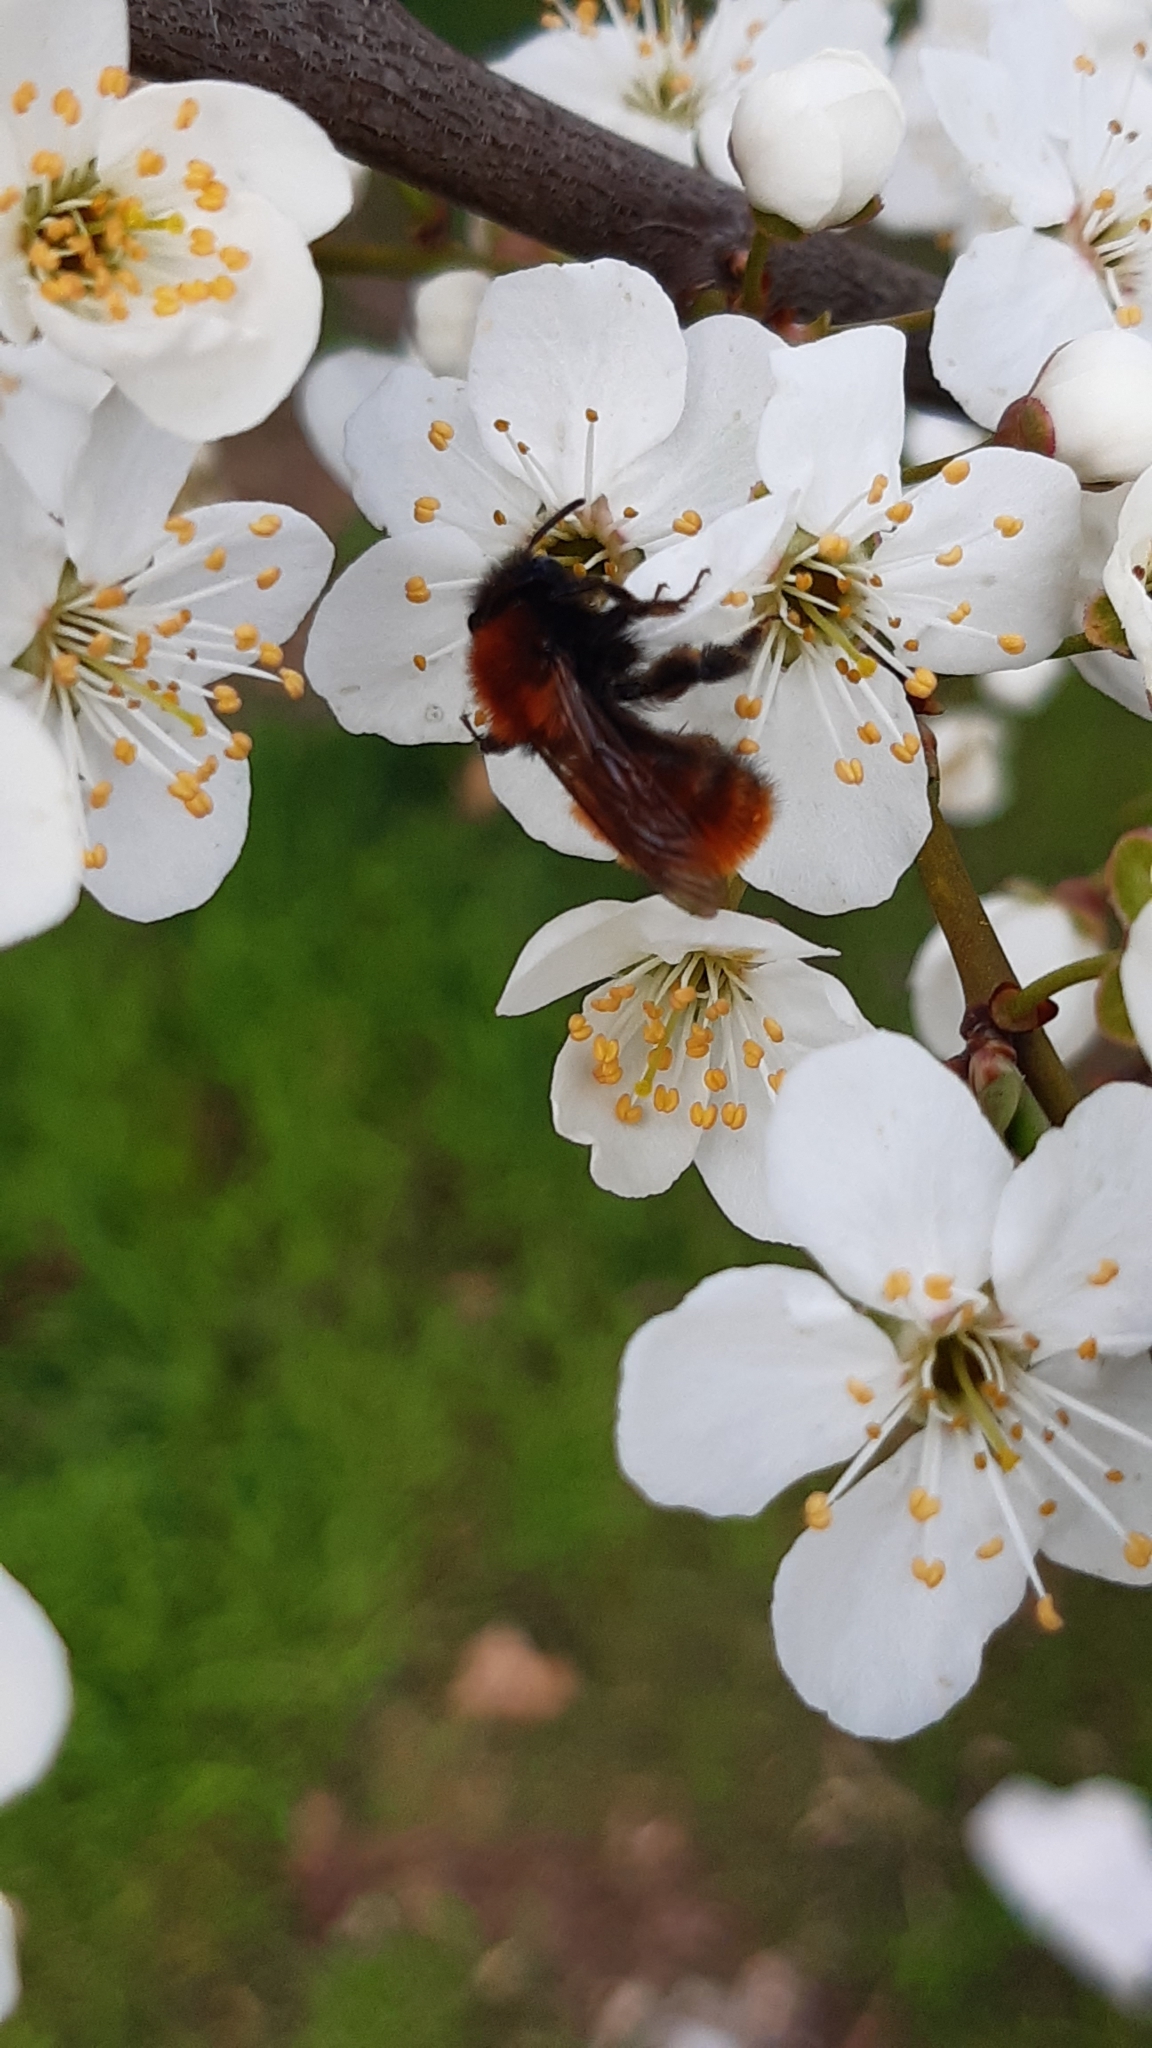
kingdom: Animalia
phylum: Arthropoda
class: Insecta
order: Hymenoptera
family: Andrenidae
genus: Andrena
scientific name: Andrena fulva
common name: Tawny mining bee
